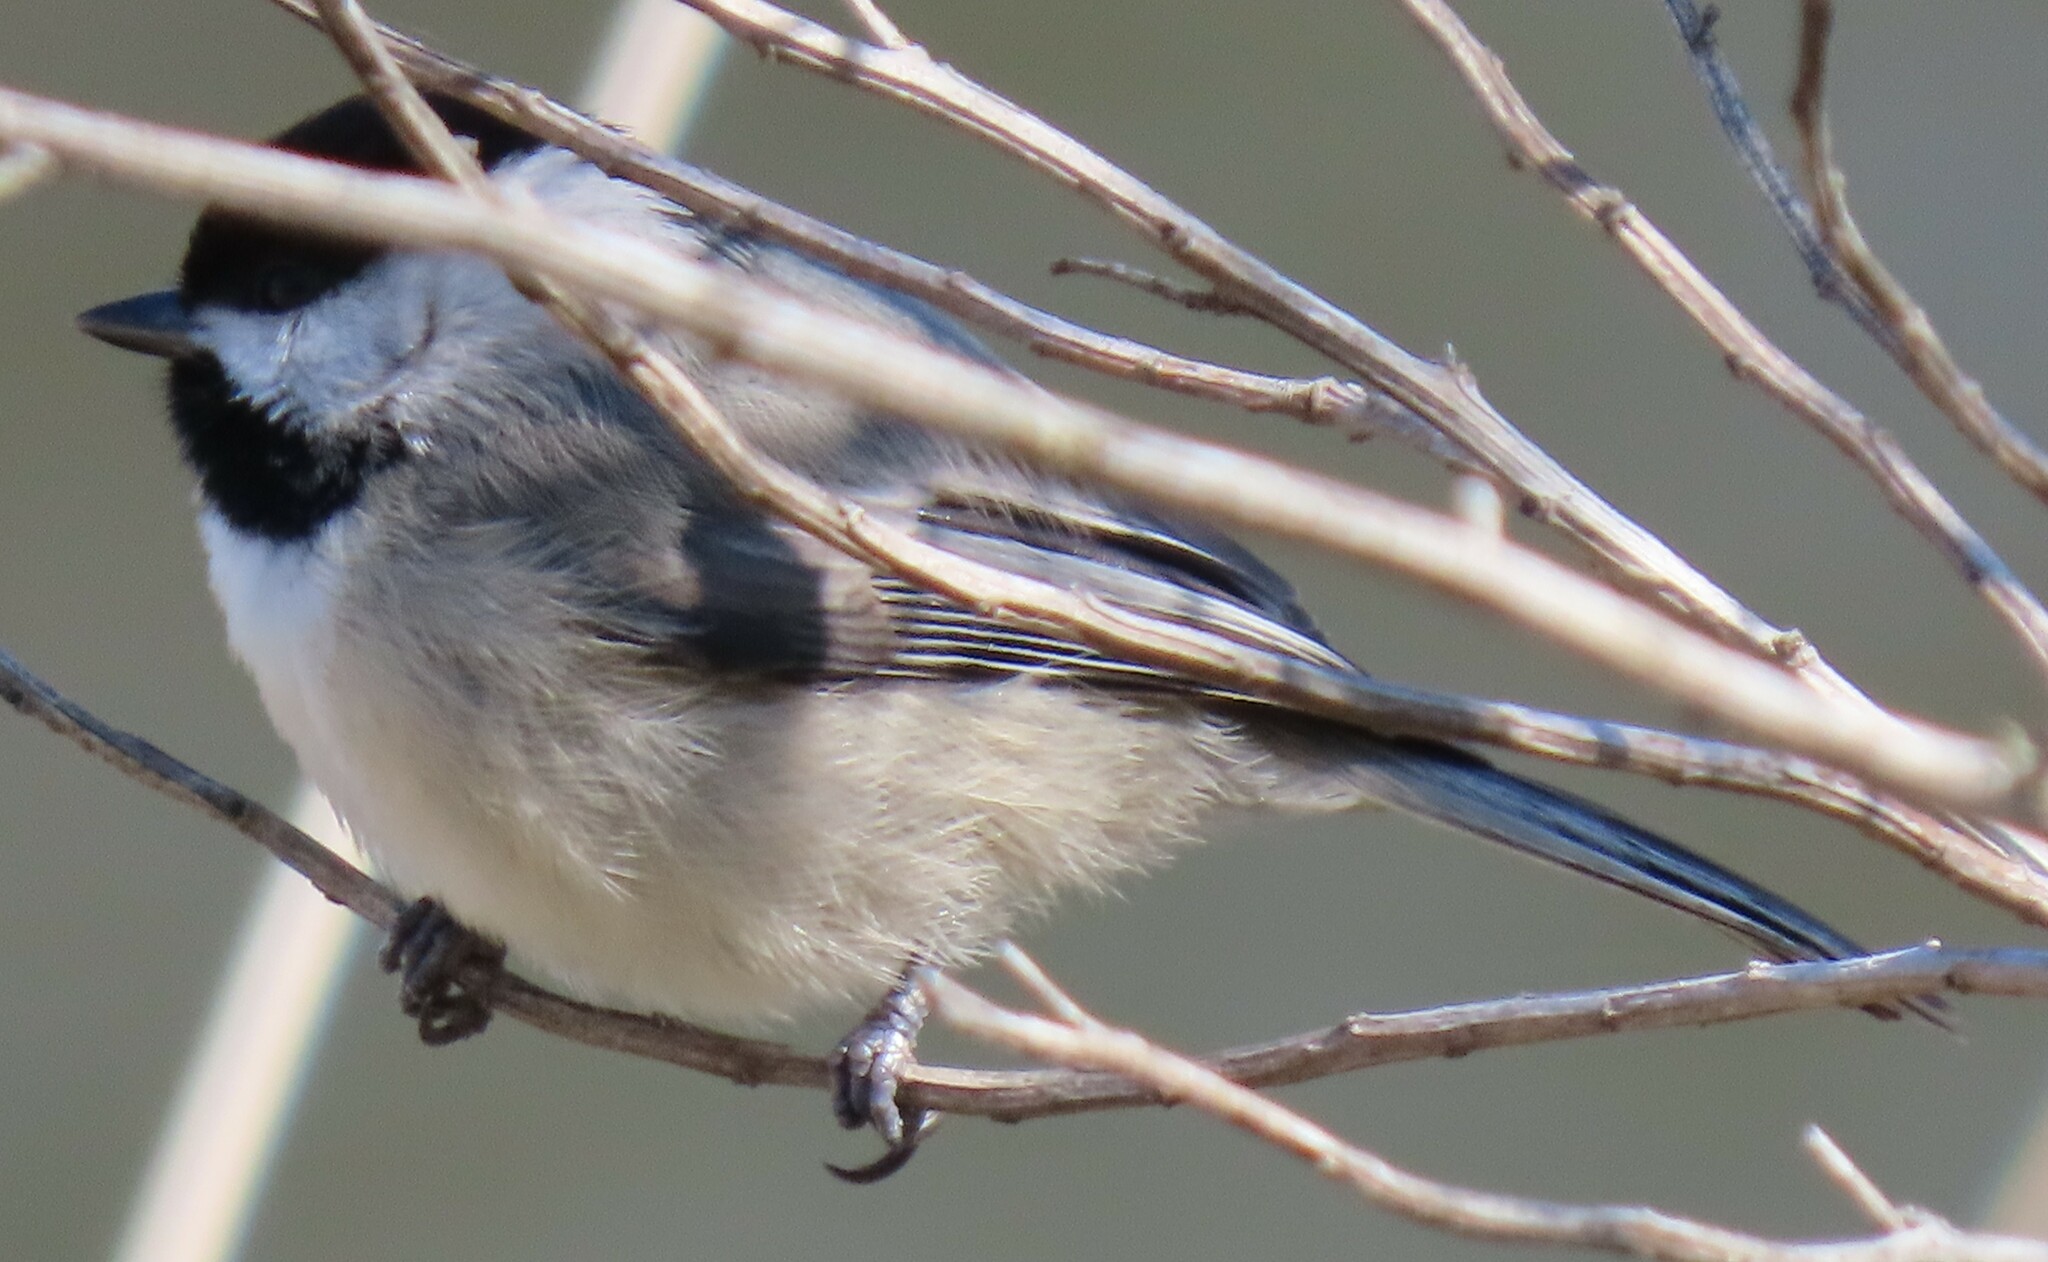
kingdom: Animalia
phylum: Chordata
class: Aves
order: Passeriformes
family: Paridae
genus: Poecile
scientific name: Poecile carolinensis
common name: Carolina chickadee
